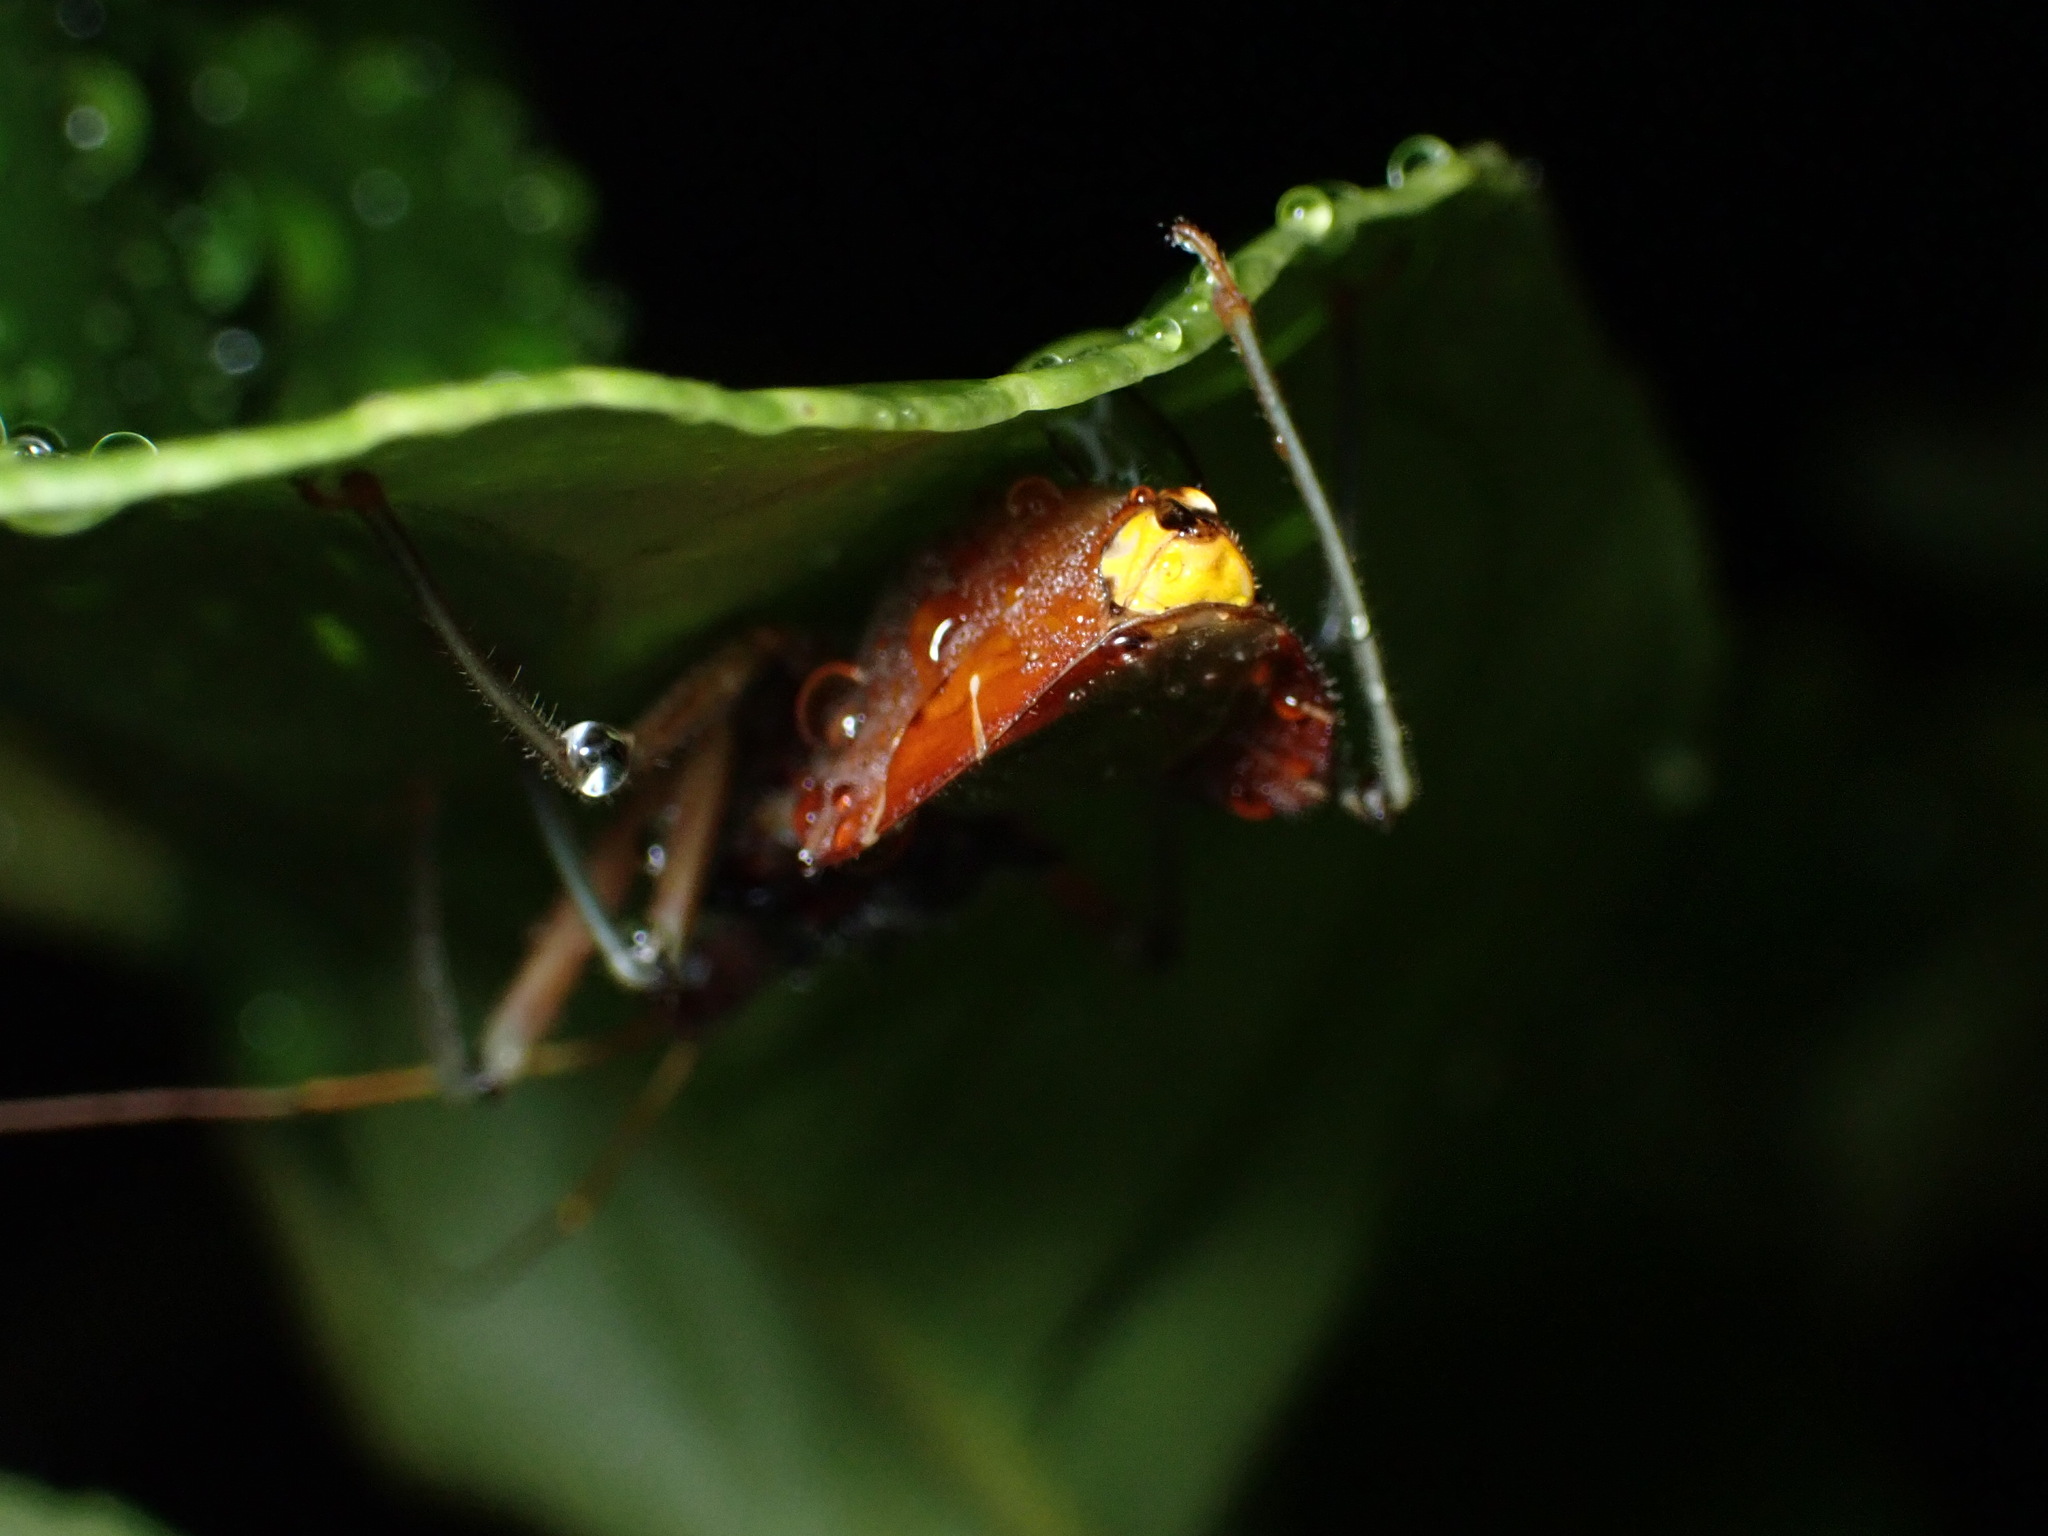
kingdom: Animalia
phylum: Arthropoda
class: Insecta
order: Hemiptera
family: Reduviidae
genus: Pristhesancus
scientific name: Pristhesancus plagipennis
